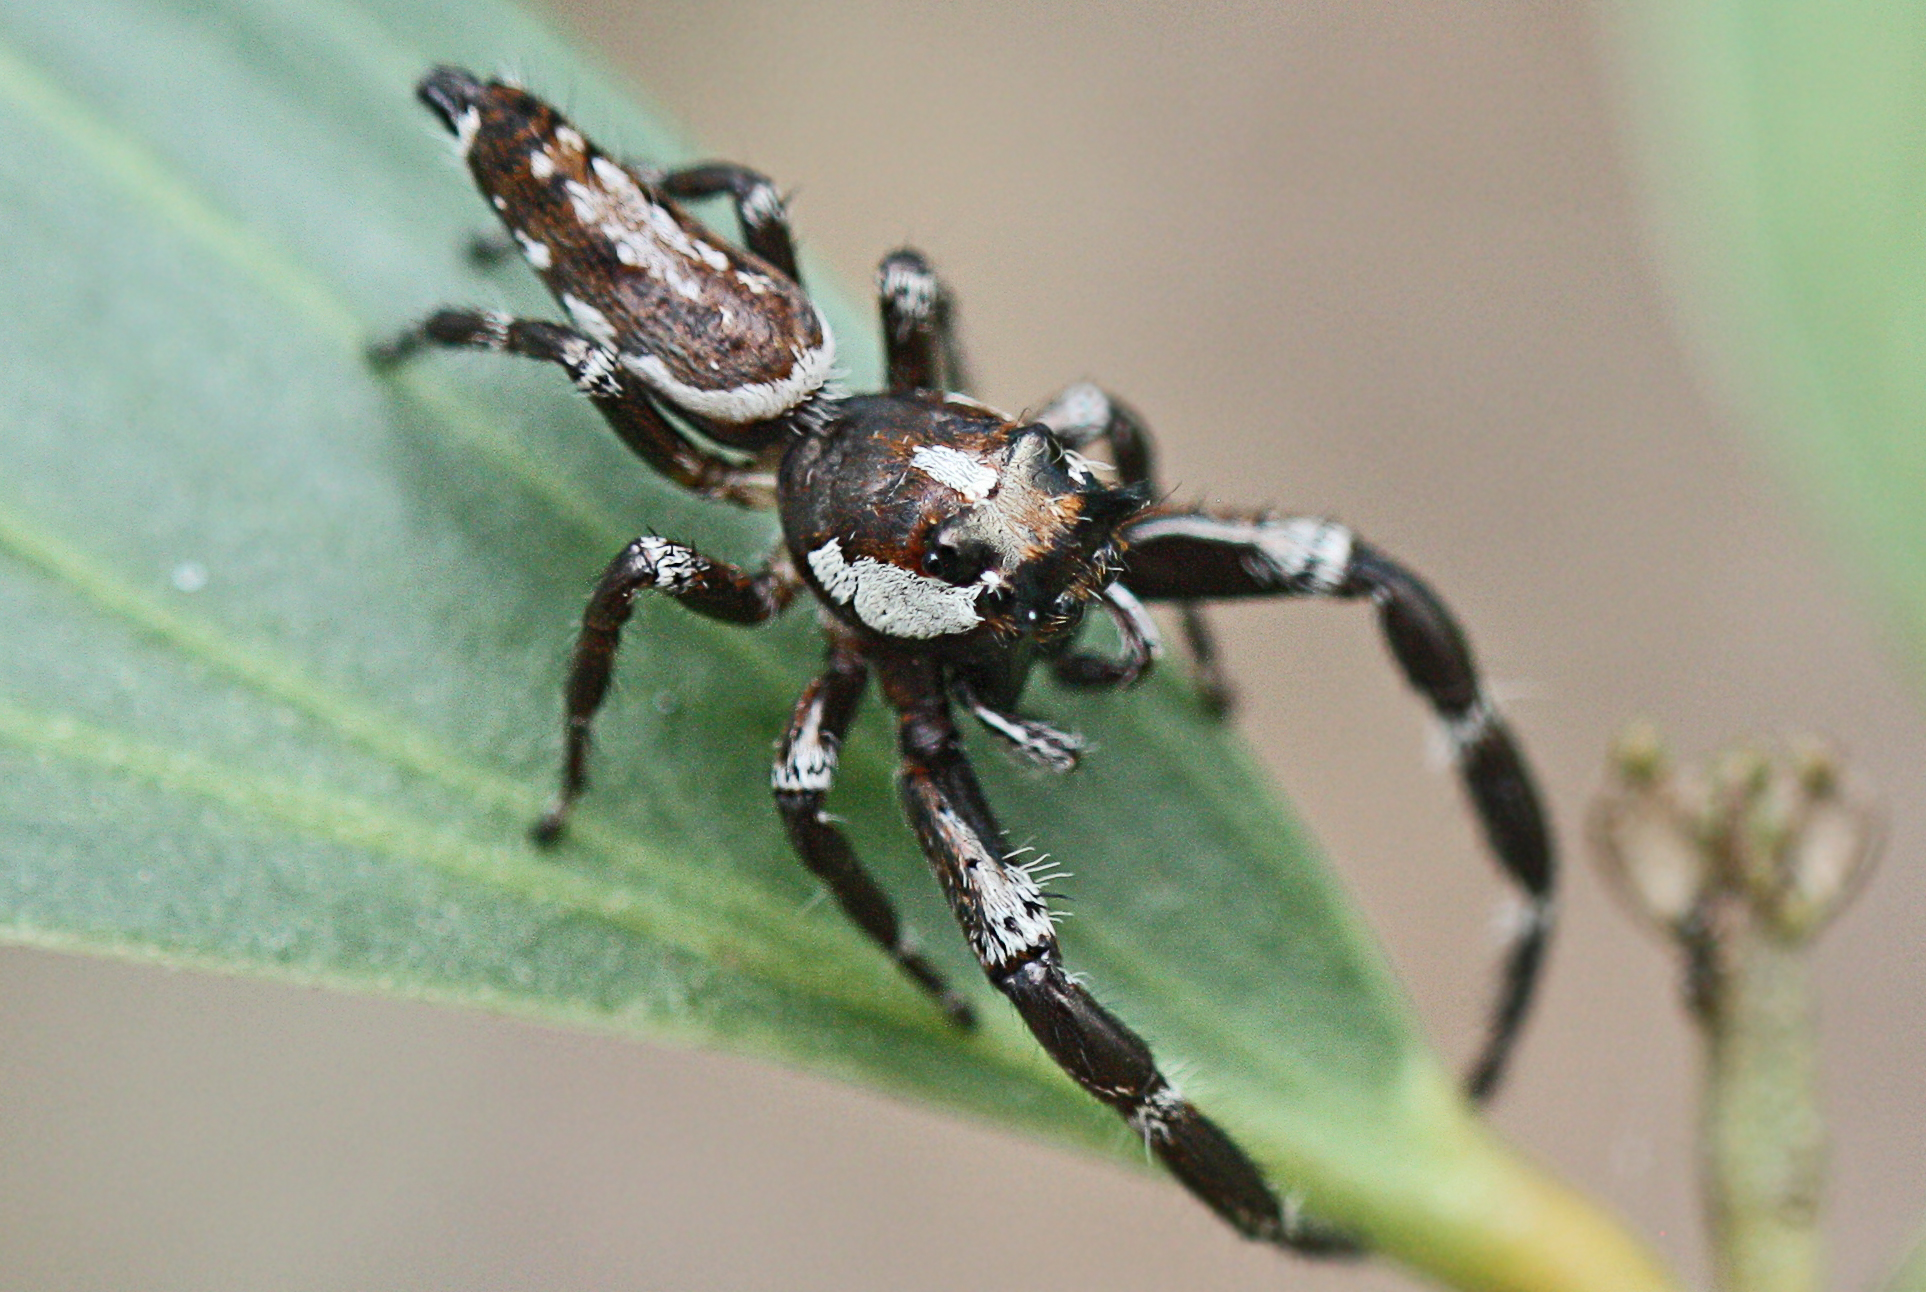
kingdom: Animalia
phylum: Arthropoda
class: Arachnida
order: Araneae
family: Salticidae
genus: Sandalodes
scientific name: Sandalodes bipenicillatus
